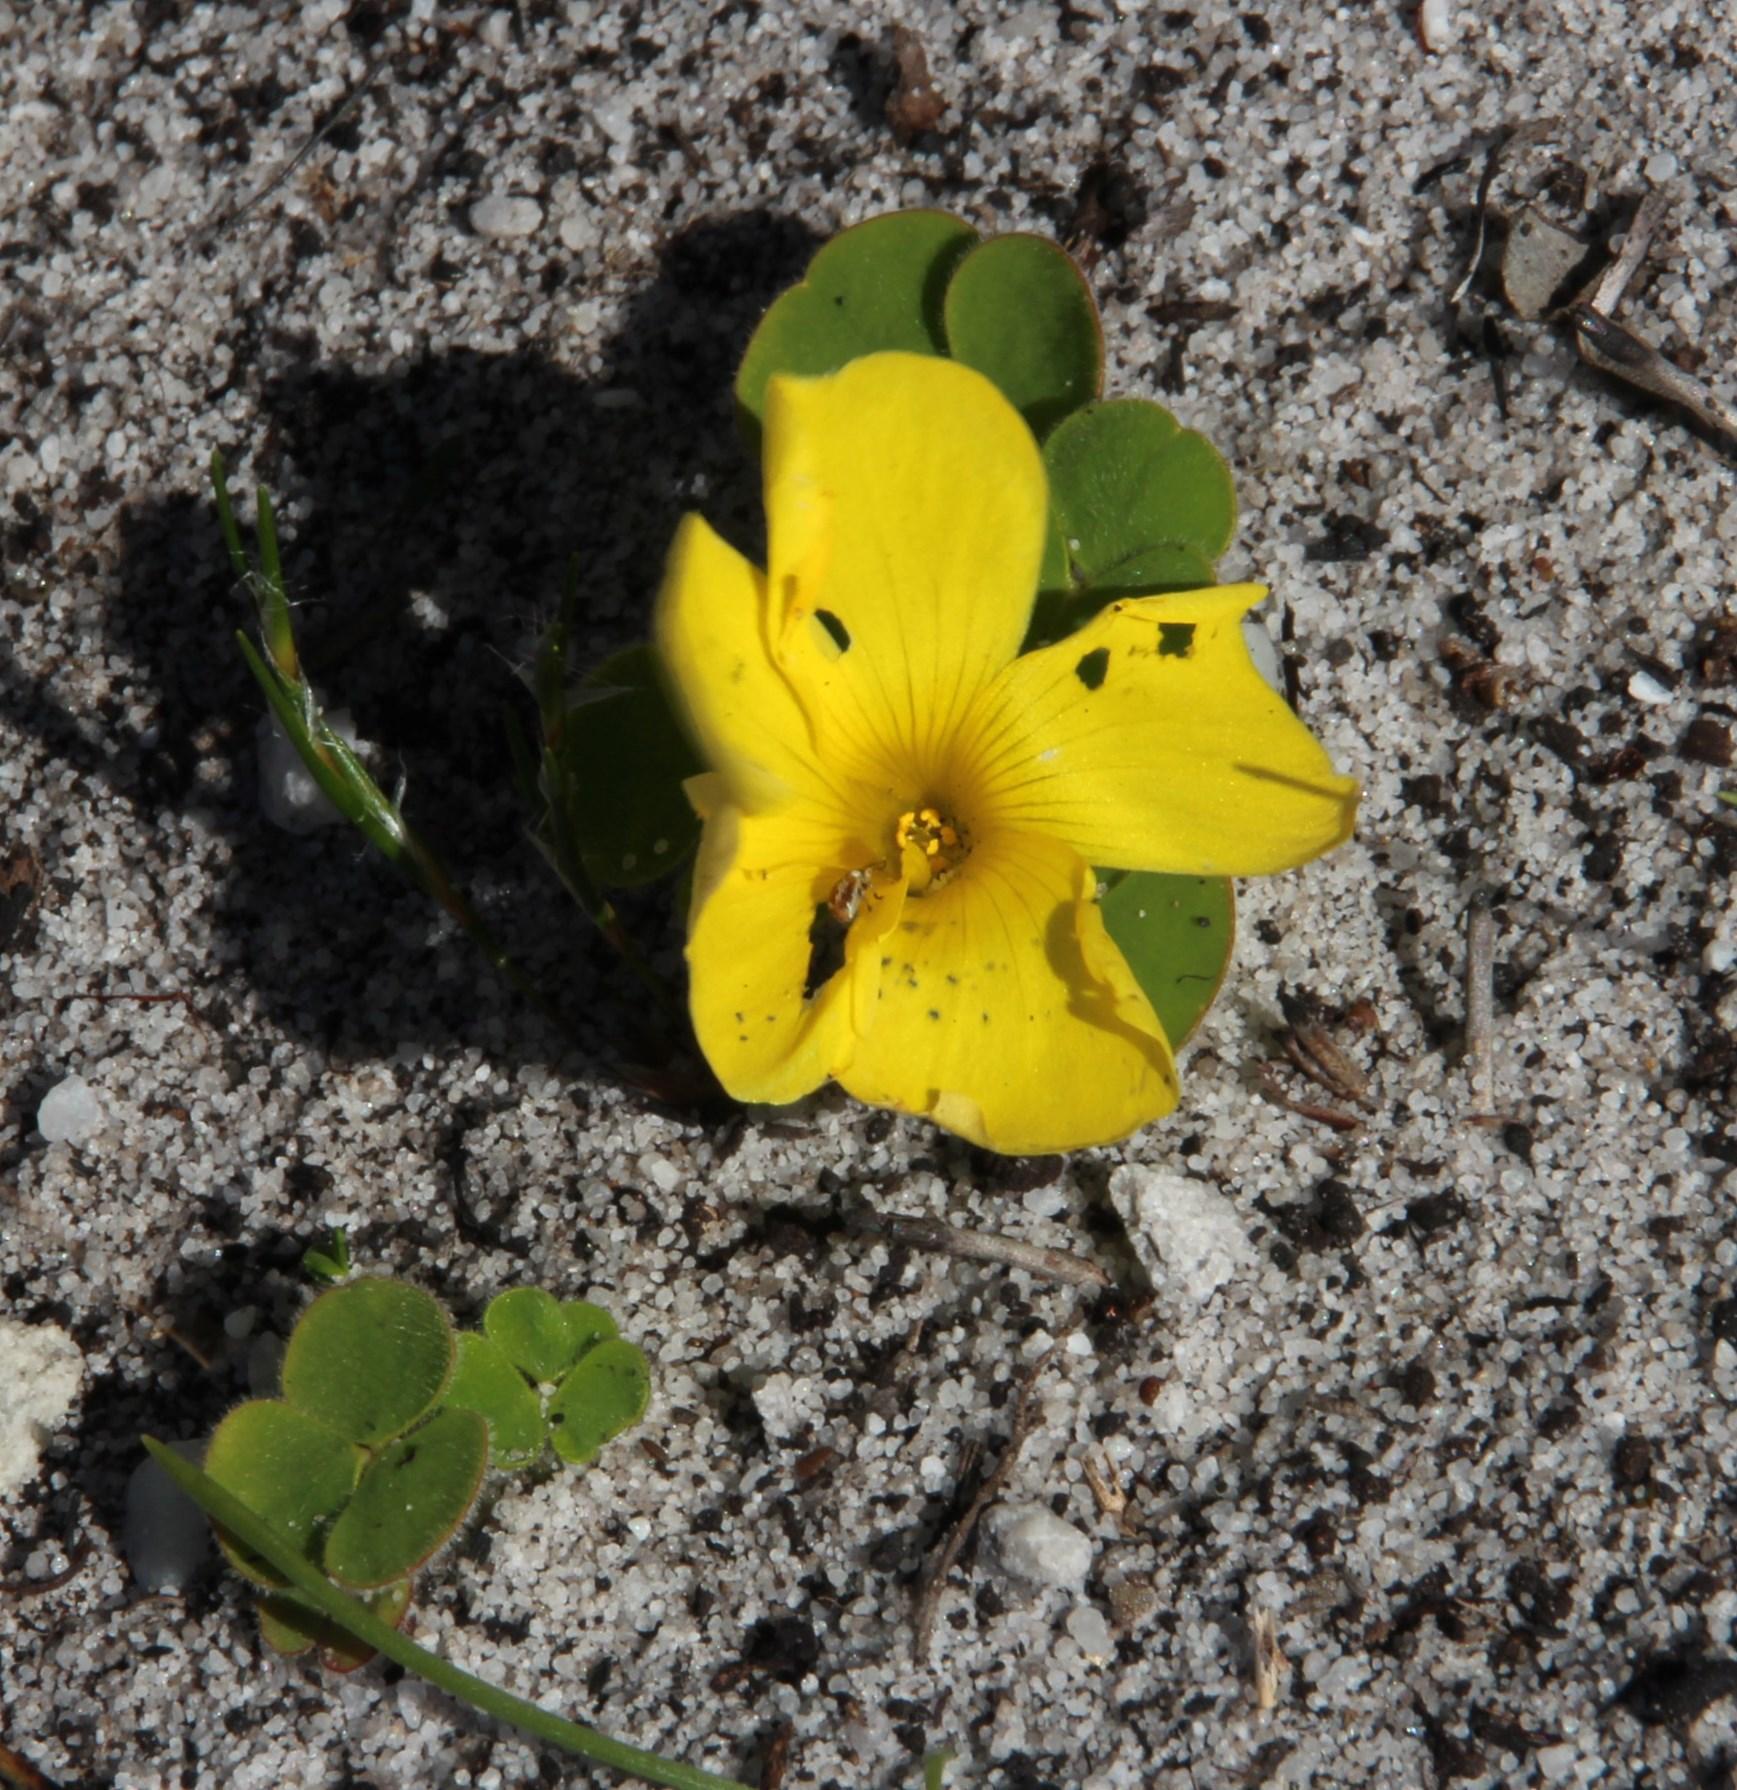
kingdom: Plantae
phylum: Tracheophyta
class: Magnoliopsida
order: Oxalidales
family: Oxalidaceae
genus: Oxalis
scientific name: Oxalis luteola
